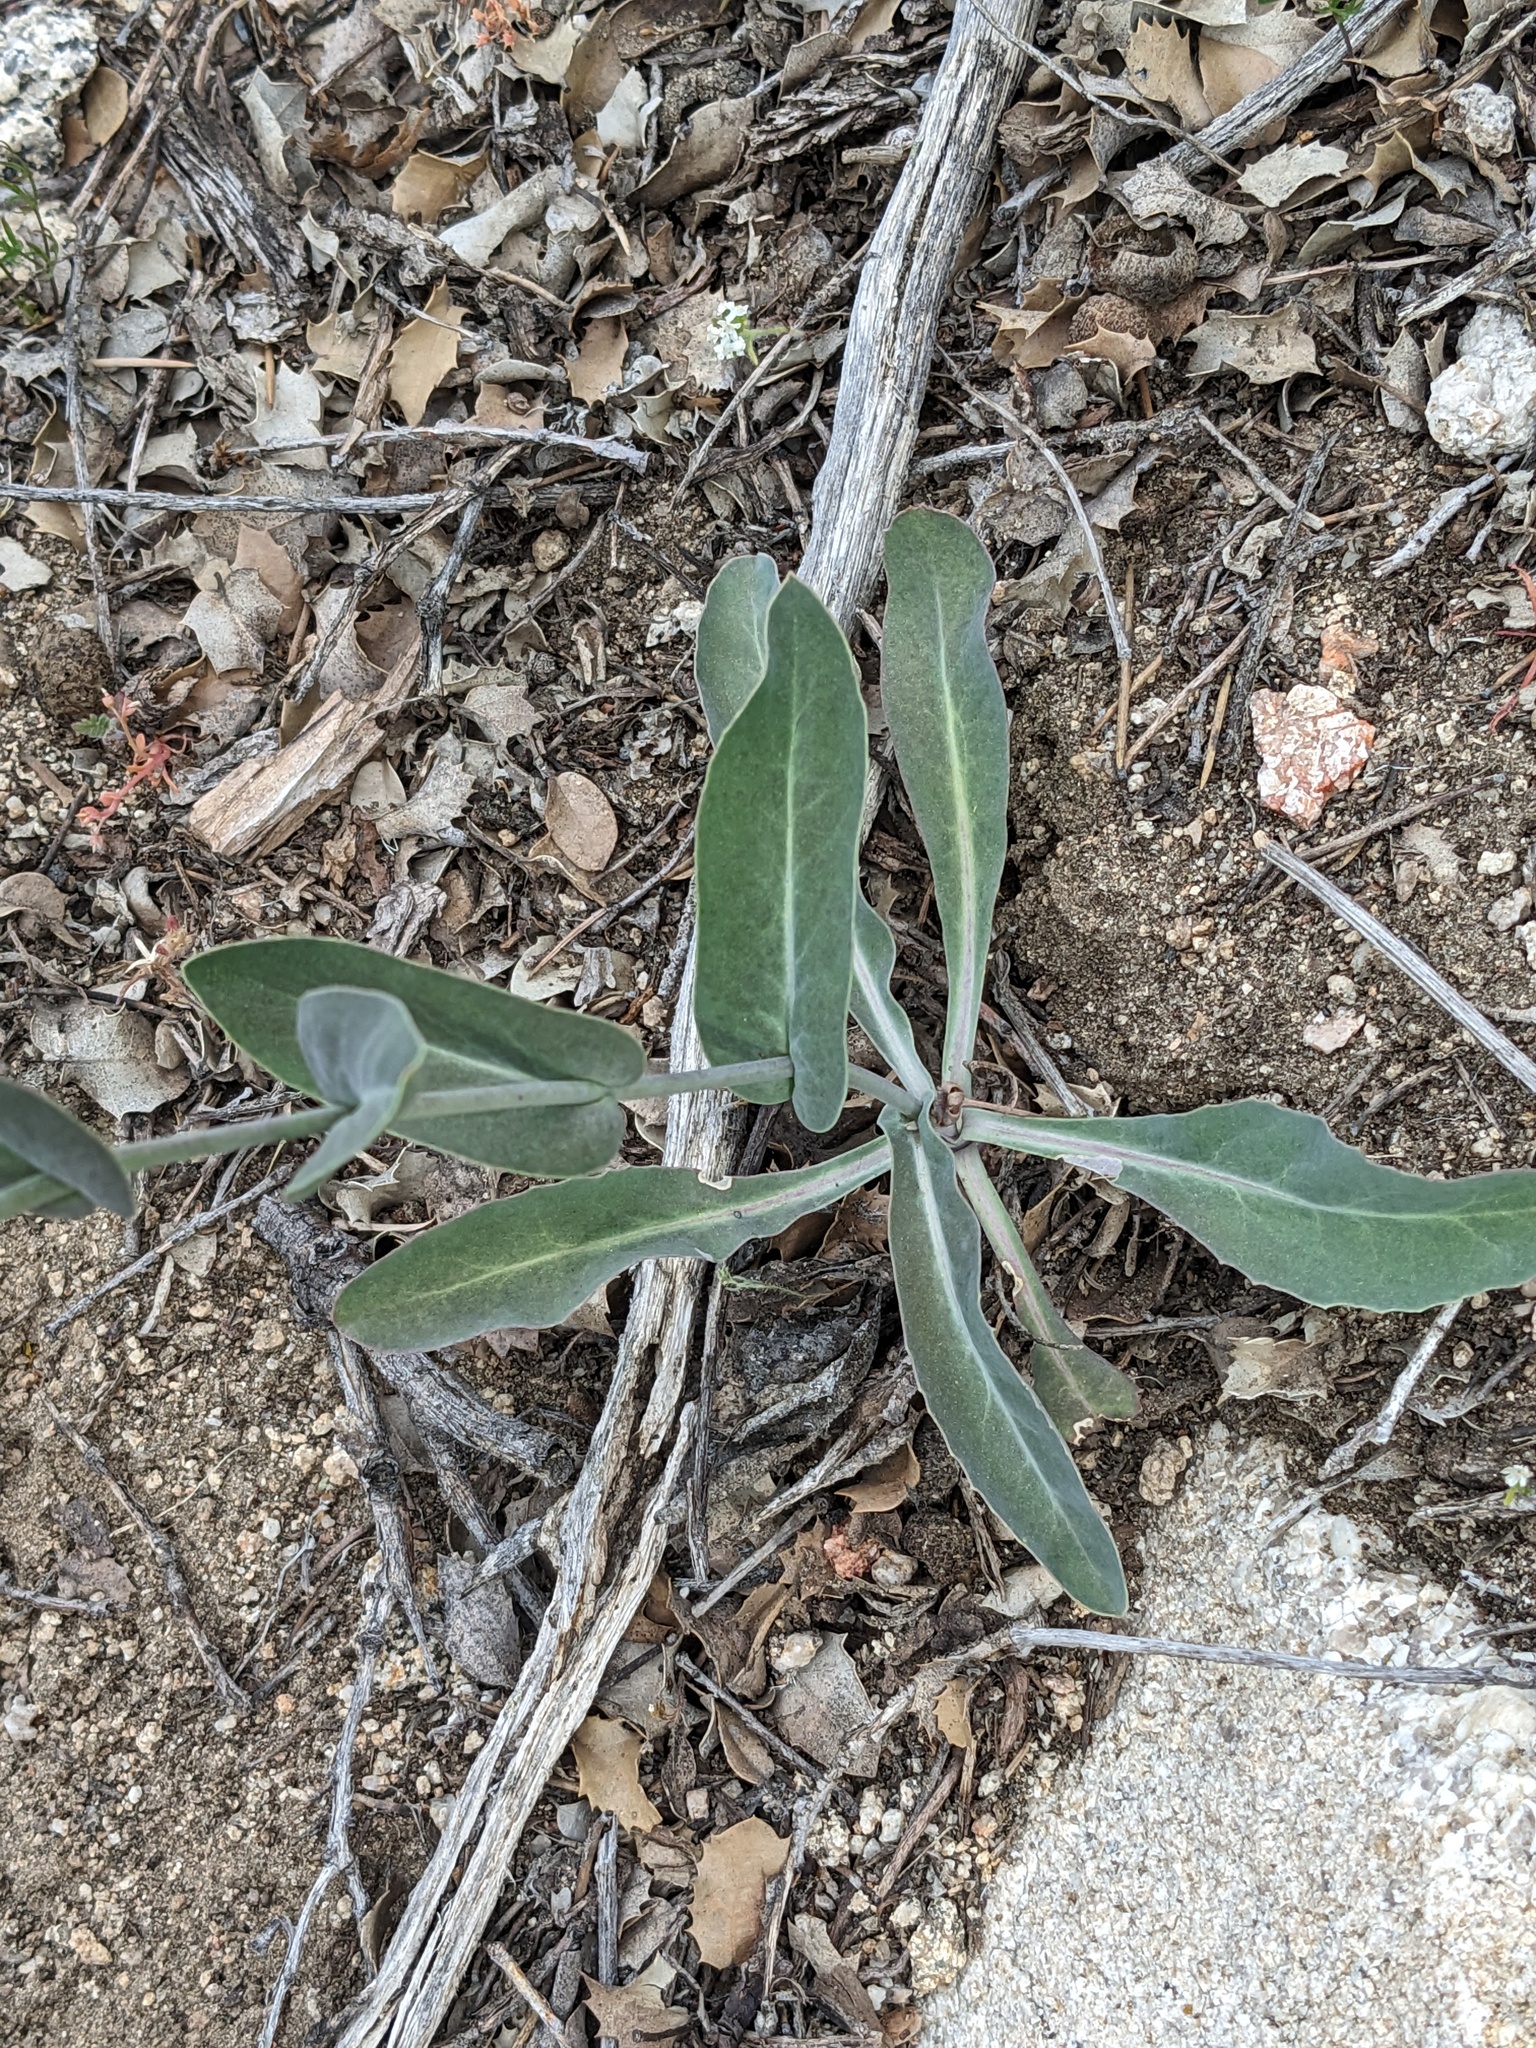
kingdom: Plantae
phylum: Tracheophyta
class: Magnoliopsida
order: Brassicales
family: Brassicaceae
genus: Streptanthus
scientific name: Streptanthus cordatus
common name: Heart-leaf jewel-flower
